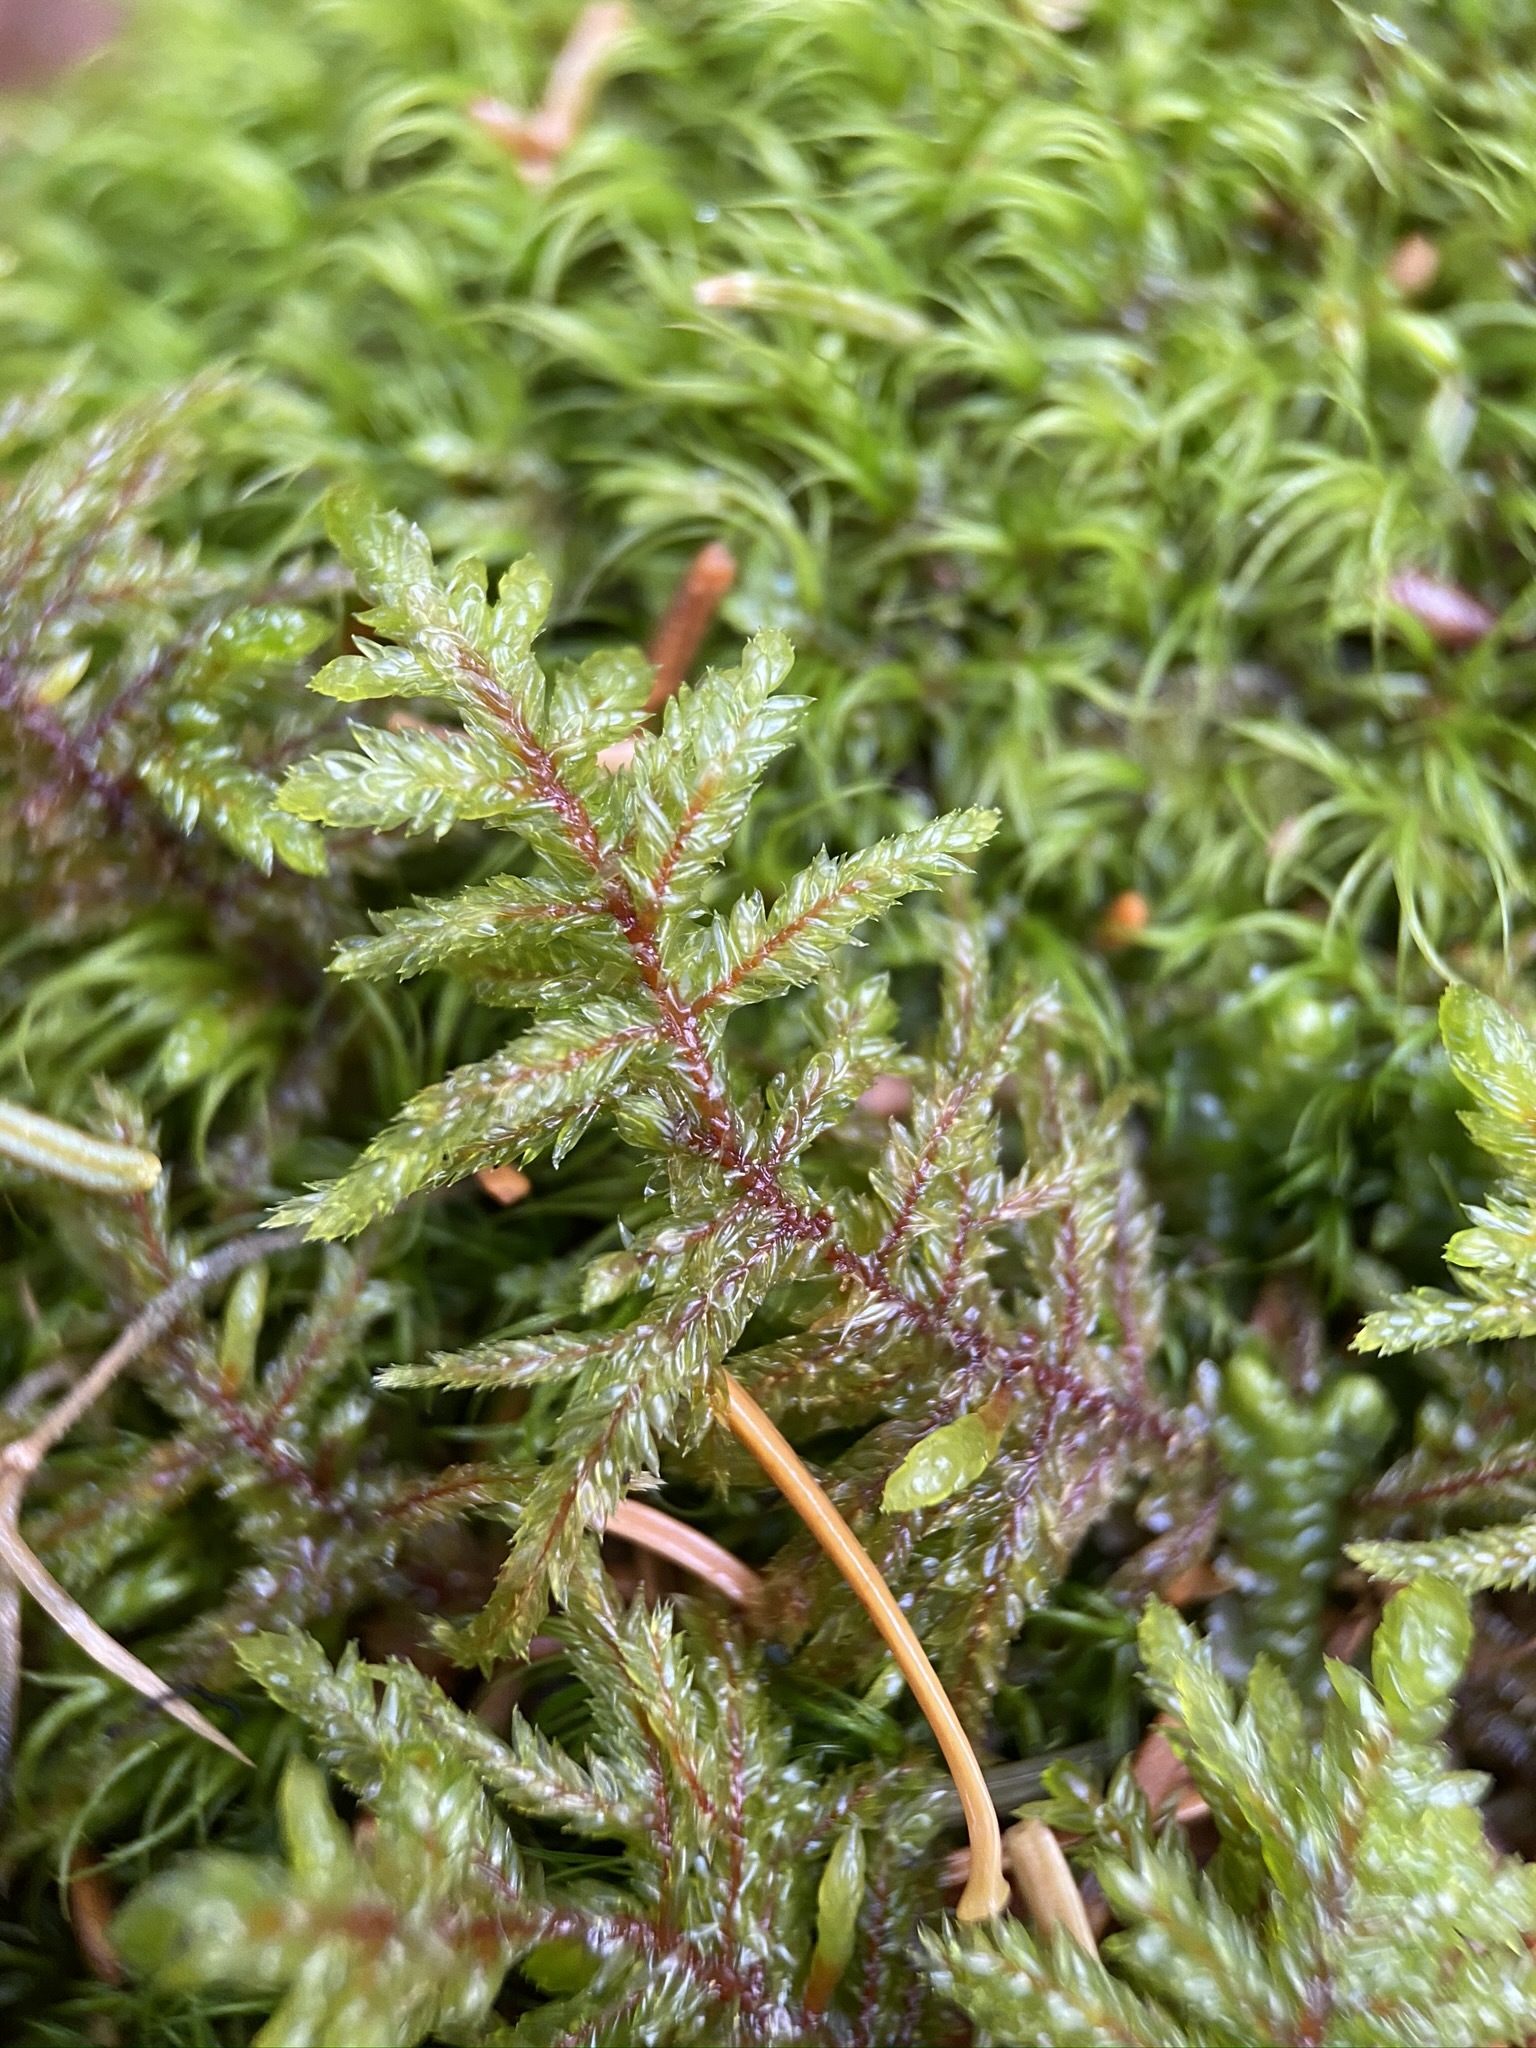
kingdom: Plantae
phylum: Bryophyta
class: Bryopsida
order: Hypnales
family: Hylocomiaceae
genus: Pleurozium
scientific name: Pleurozium schreberi
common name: Red-stemmed feather moss
